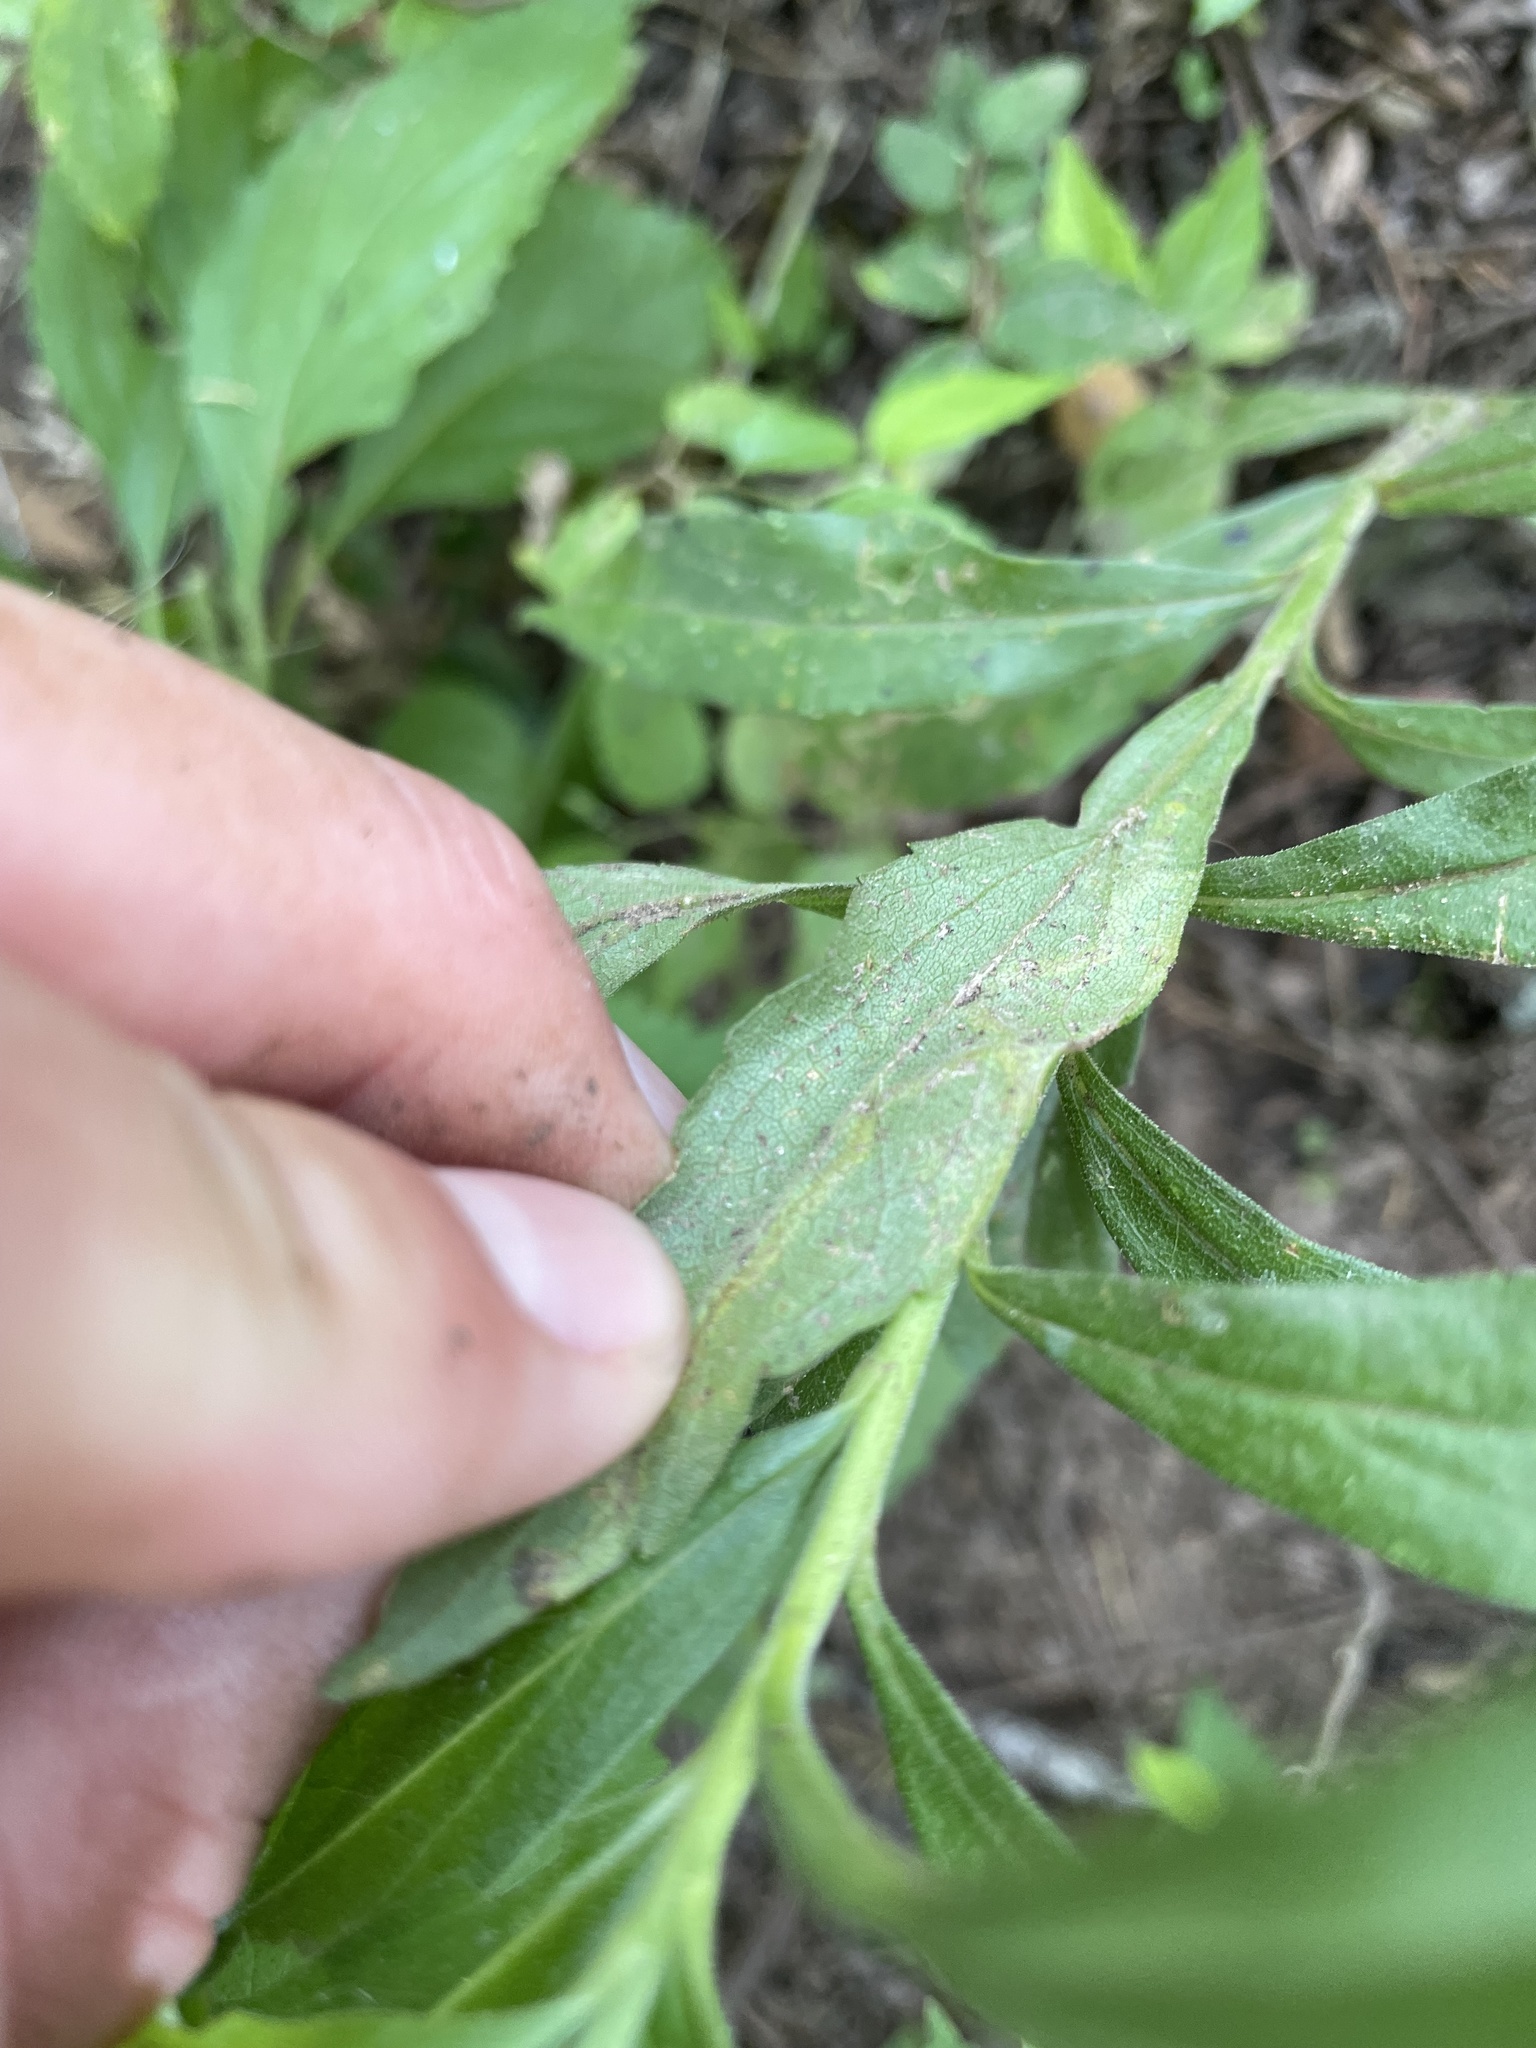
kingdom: Animalia
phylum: Arthropoda
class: Insecta
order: Diptera
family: Agromyzidae
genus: Liriomyza
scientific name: Liriomyza eupatorii
